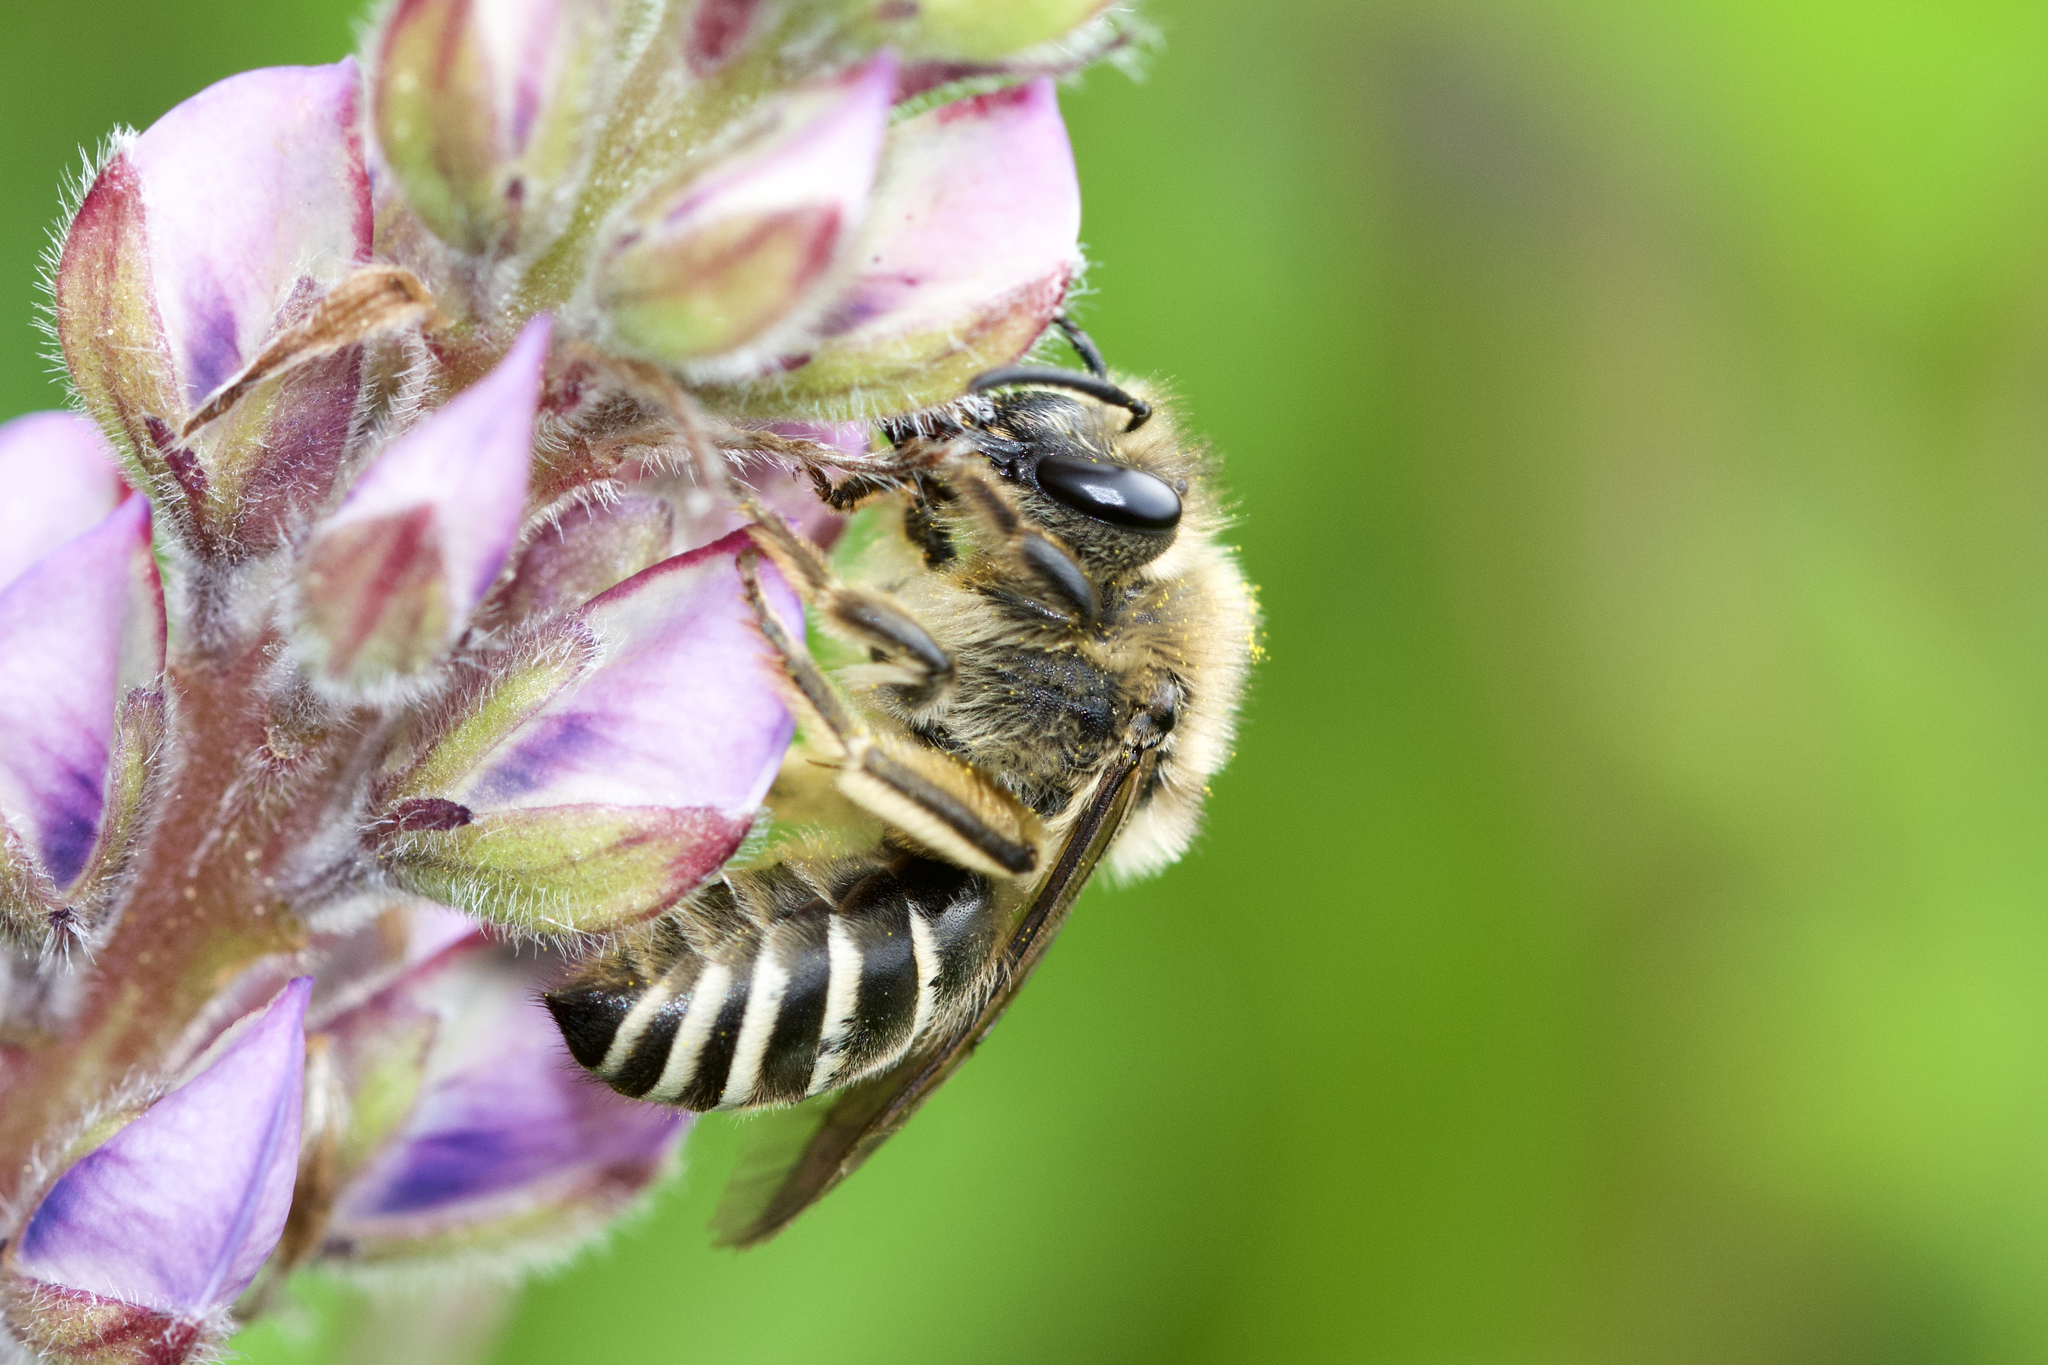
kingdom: Animalia
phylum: Arthropoda
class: Insecta
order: Hymenoptera
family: Colletidae
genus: Colletes
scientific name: Colletes inaequalis
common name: Unequal cellophane bee
